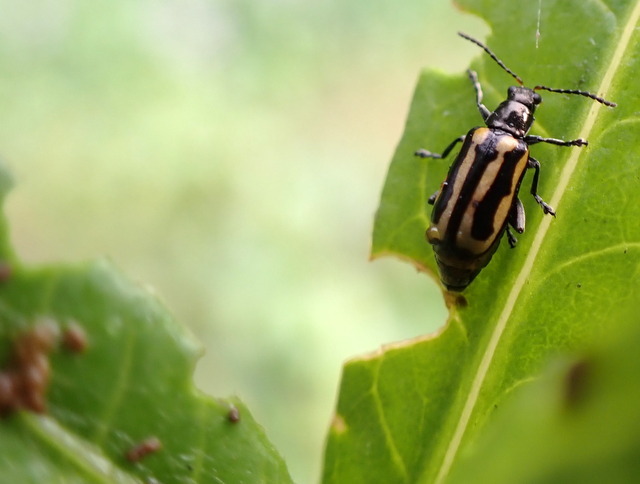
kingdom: Animalia
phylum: Arthropoda
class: Insecta
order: Coleoptera
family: Chrysomelidae
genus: Agasicles
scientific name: Agasicles hygrophila
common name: Alligatorweed flea beetle
